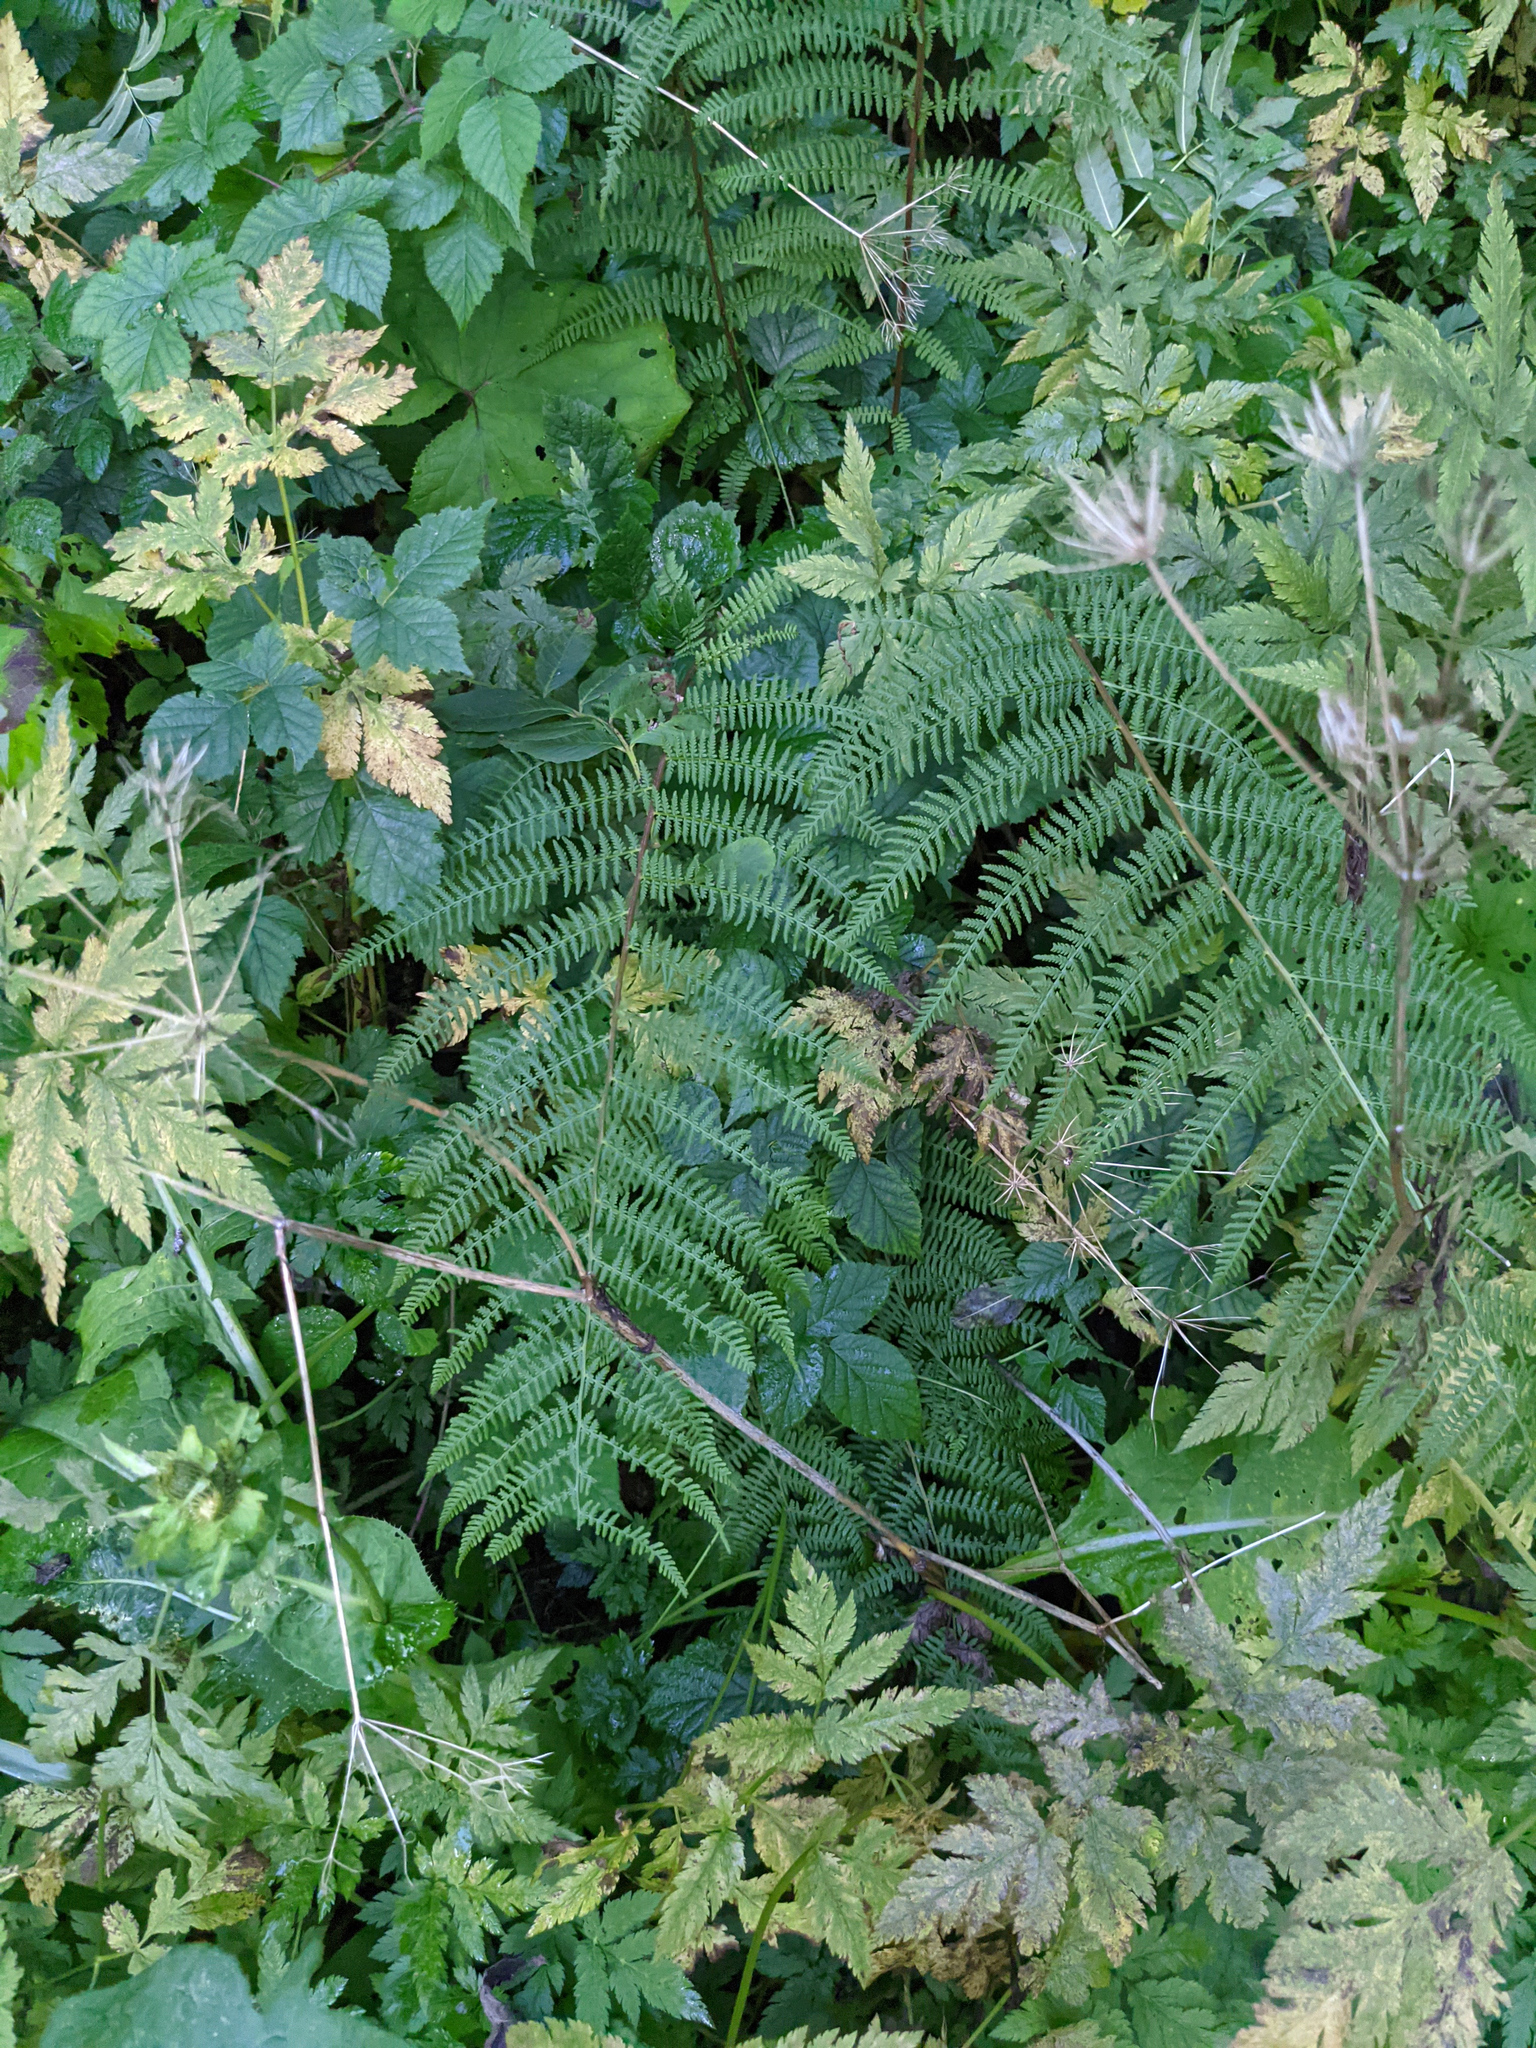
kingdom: Plantae
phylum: Tracheophyta
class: Polypodiopsida
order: Polypodiales
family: Athyriaceae
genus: Athyrium
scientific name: Athyrium filix-femina
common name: Lady fern
